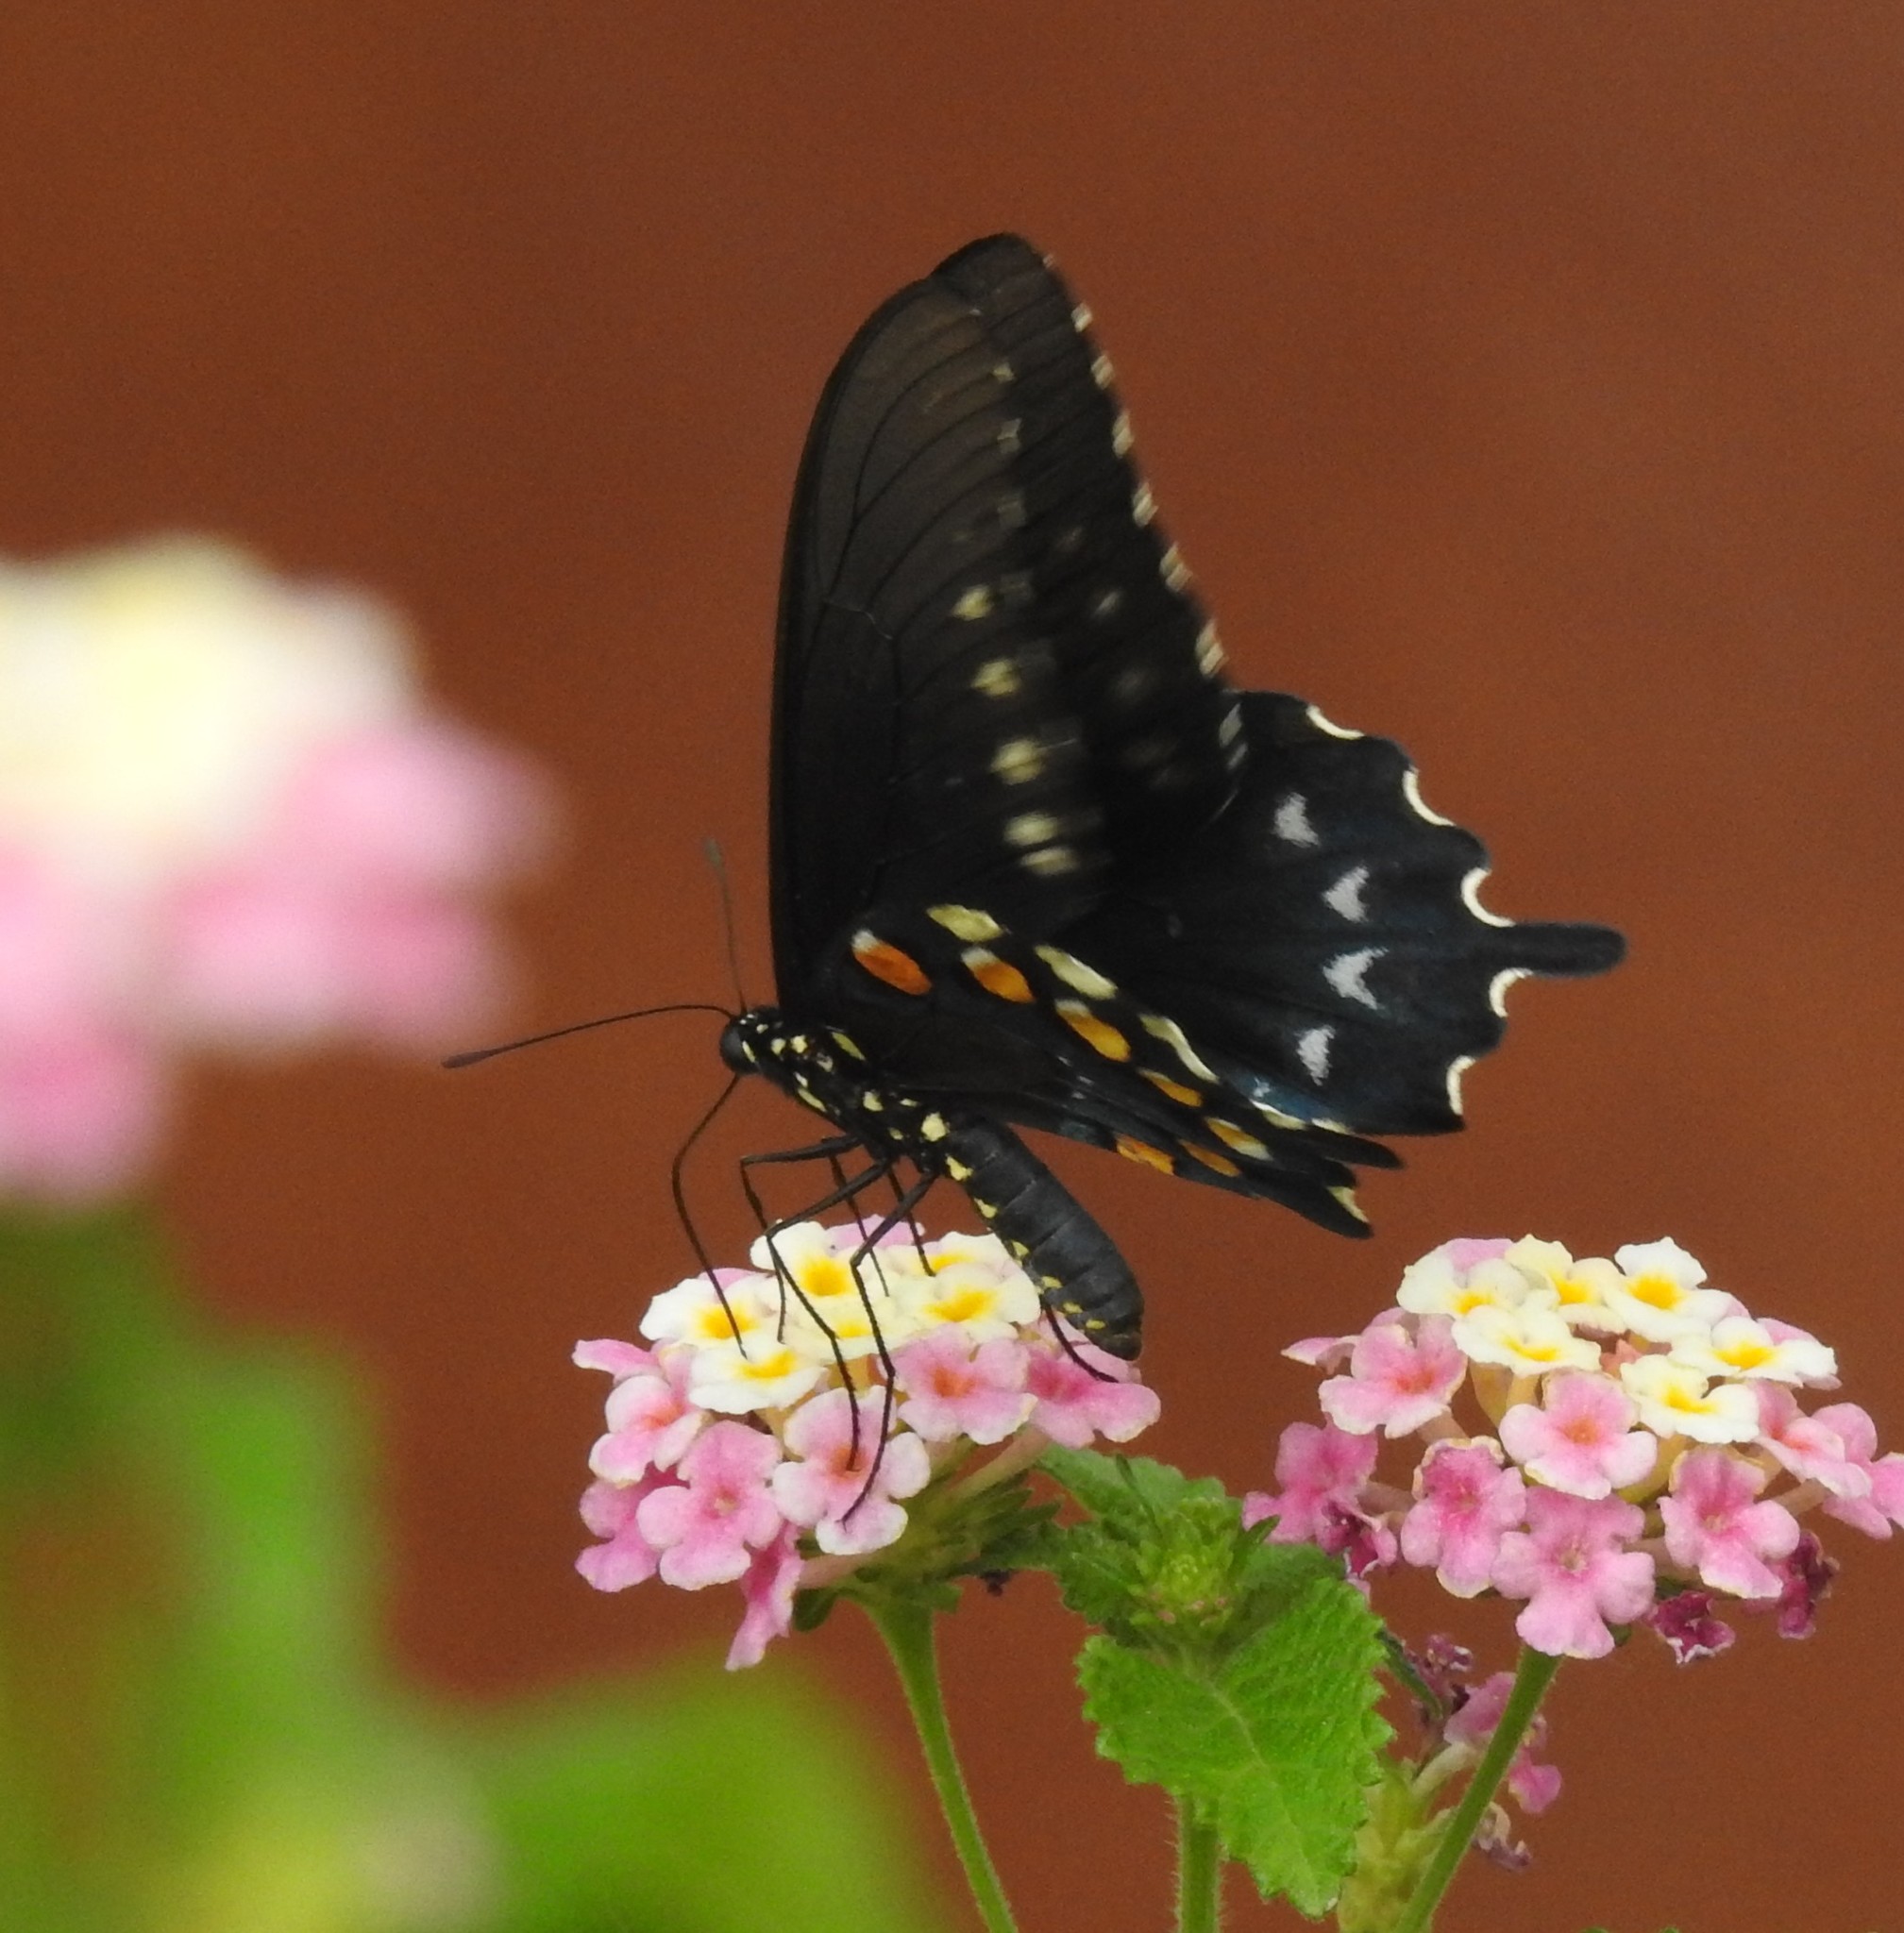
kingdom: Animalia
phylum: Arthropoda
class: Insecta
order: Lepidoptera
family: Papilionidae
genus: Battus
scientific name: Battus philenor
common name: Pipevine swallowtail
